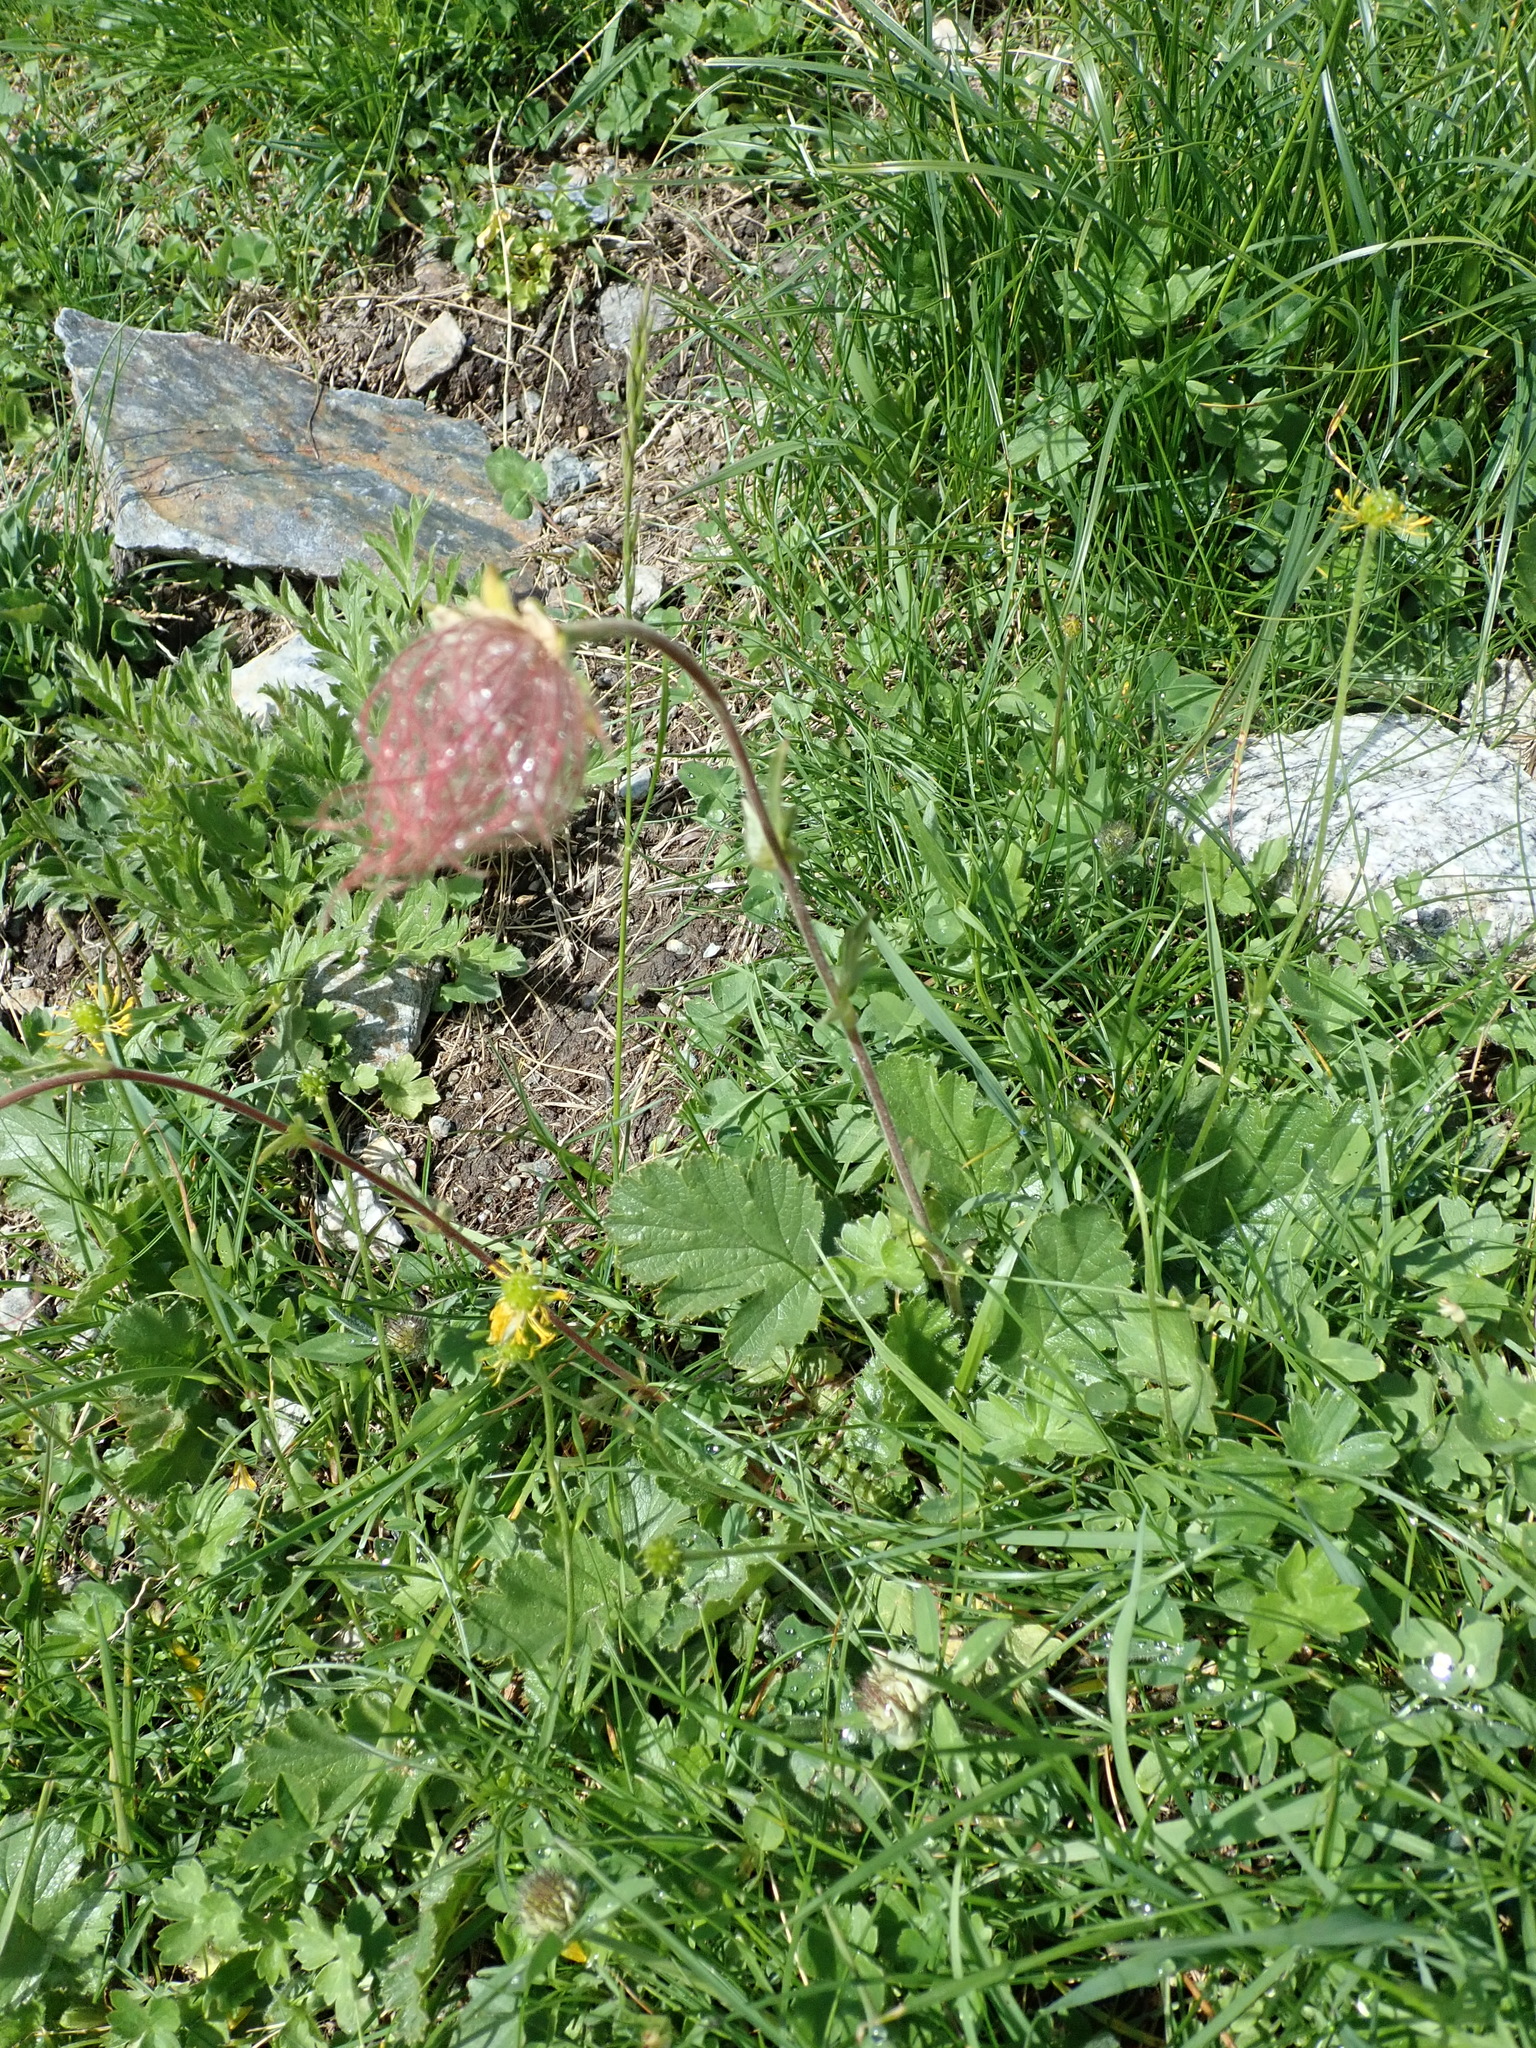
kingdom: Plantae
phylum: Tracheophyta
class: Magnoliopsida
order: Rosales
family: Rosaceae
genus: Geum
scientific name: Geum montanum
